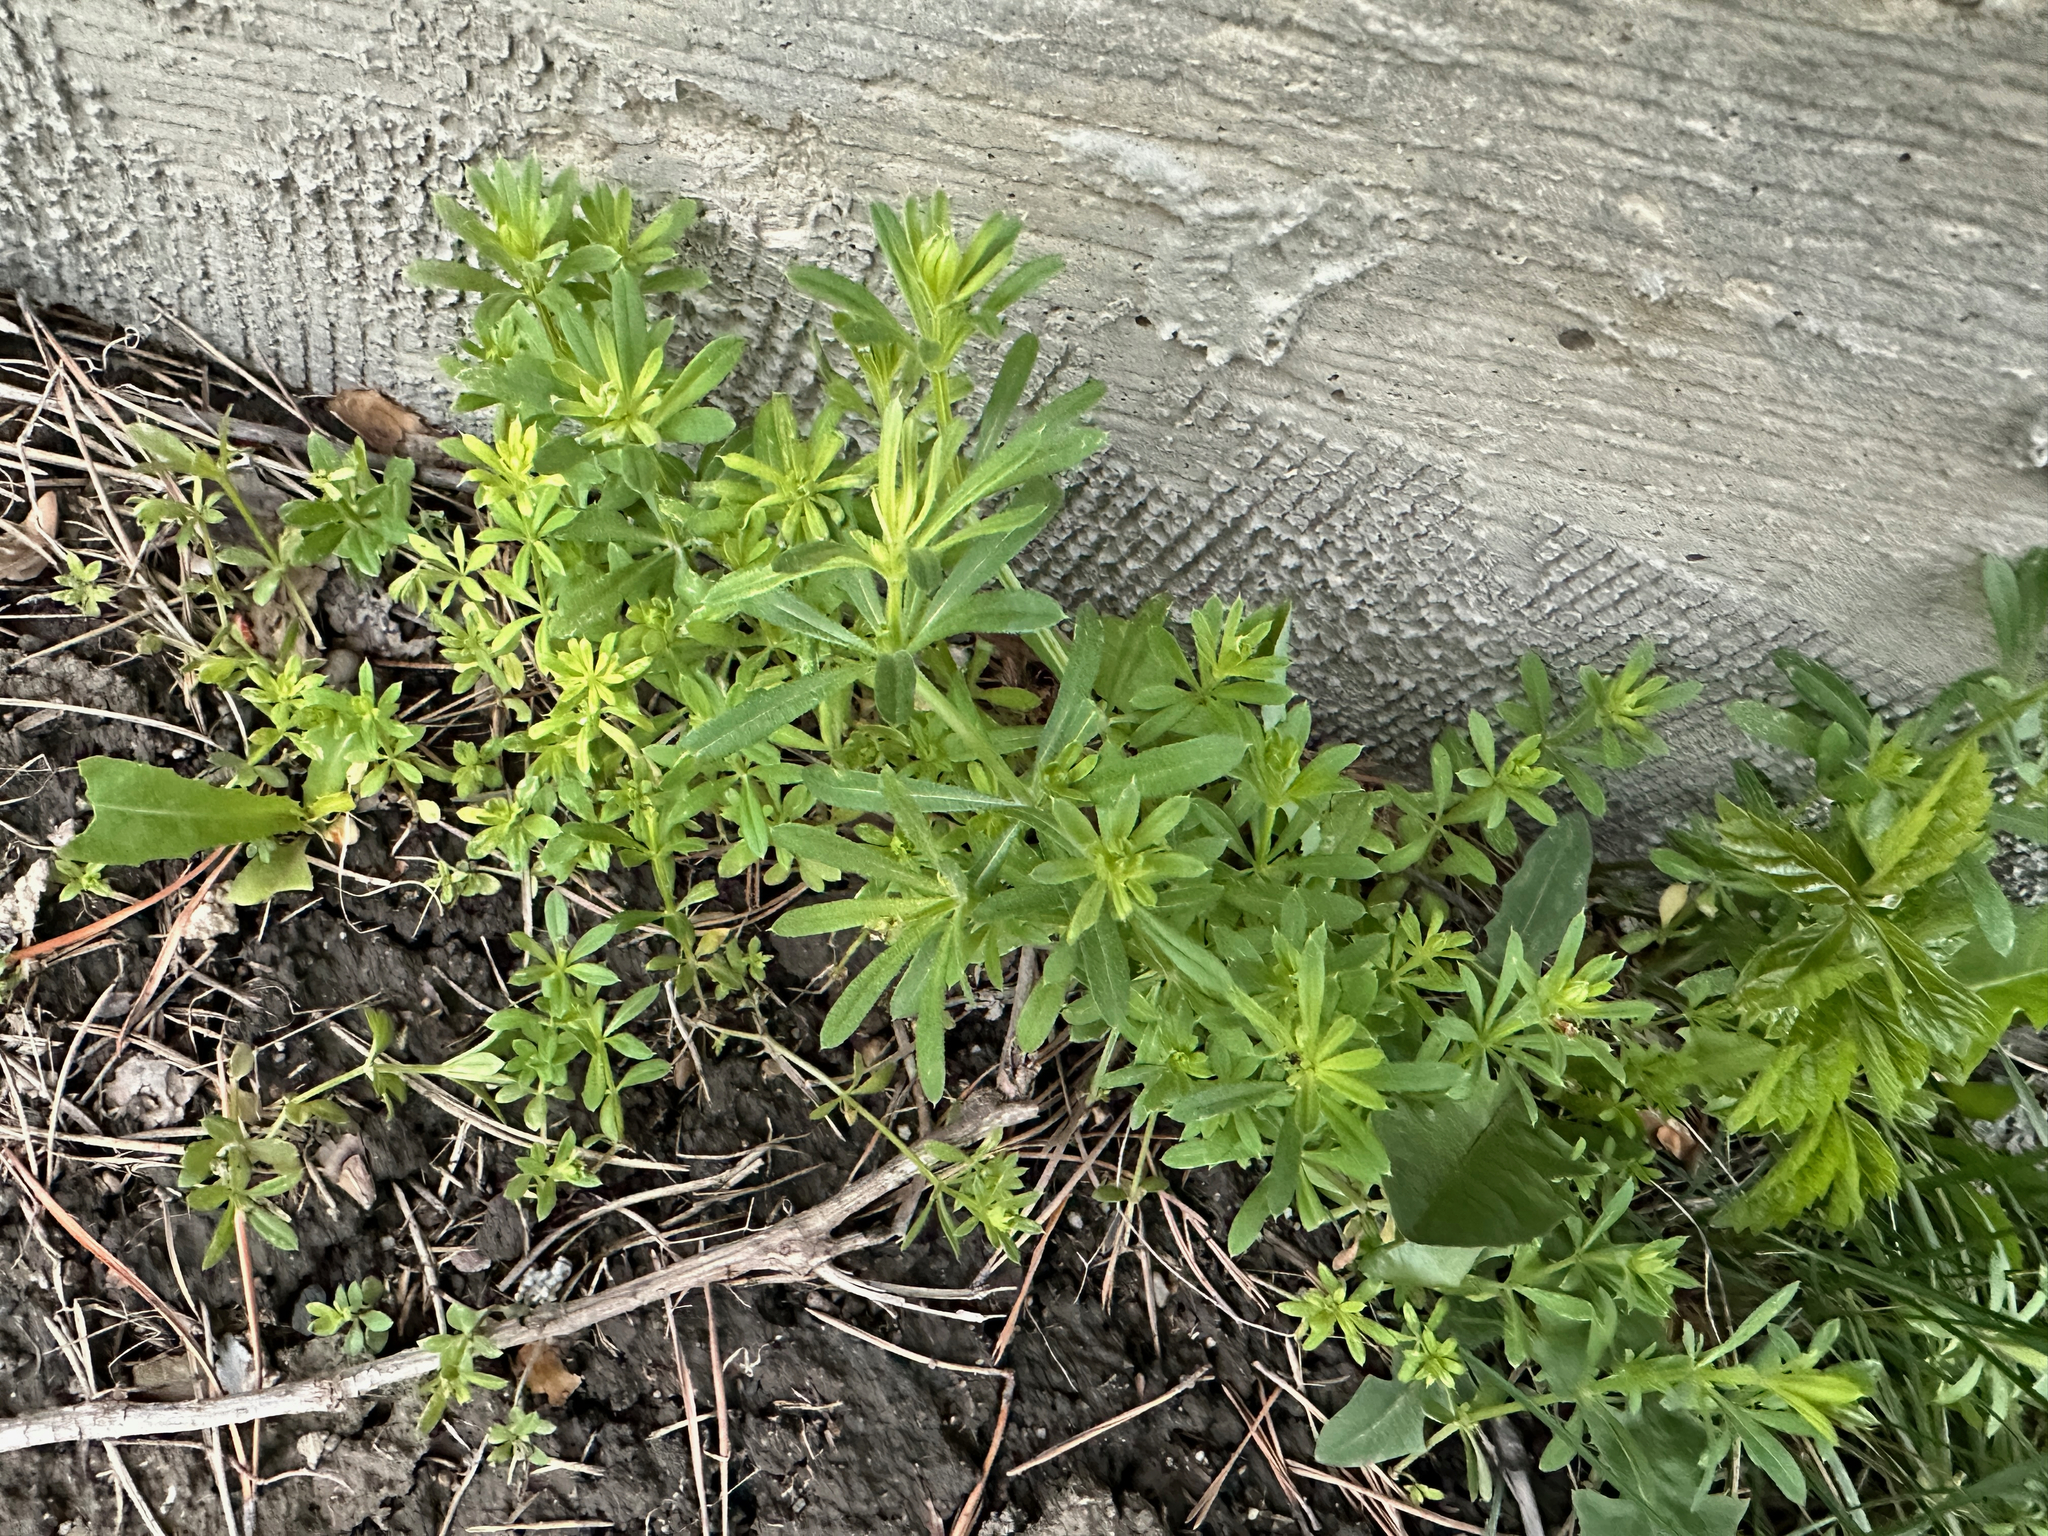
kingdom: Plantae
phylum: Tracheophyta
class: Magnoliopsida
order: Gentianales
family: Rubiaceae
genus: Galium
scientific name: Galium aparine
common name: Cleavers
